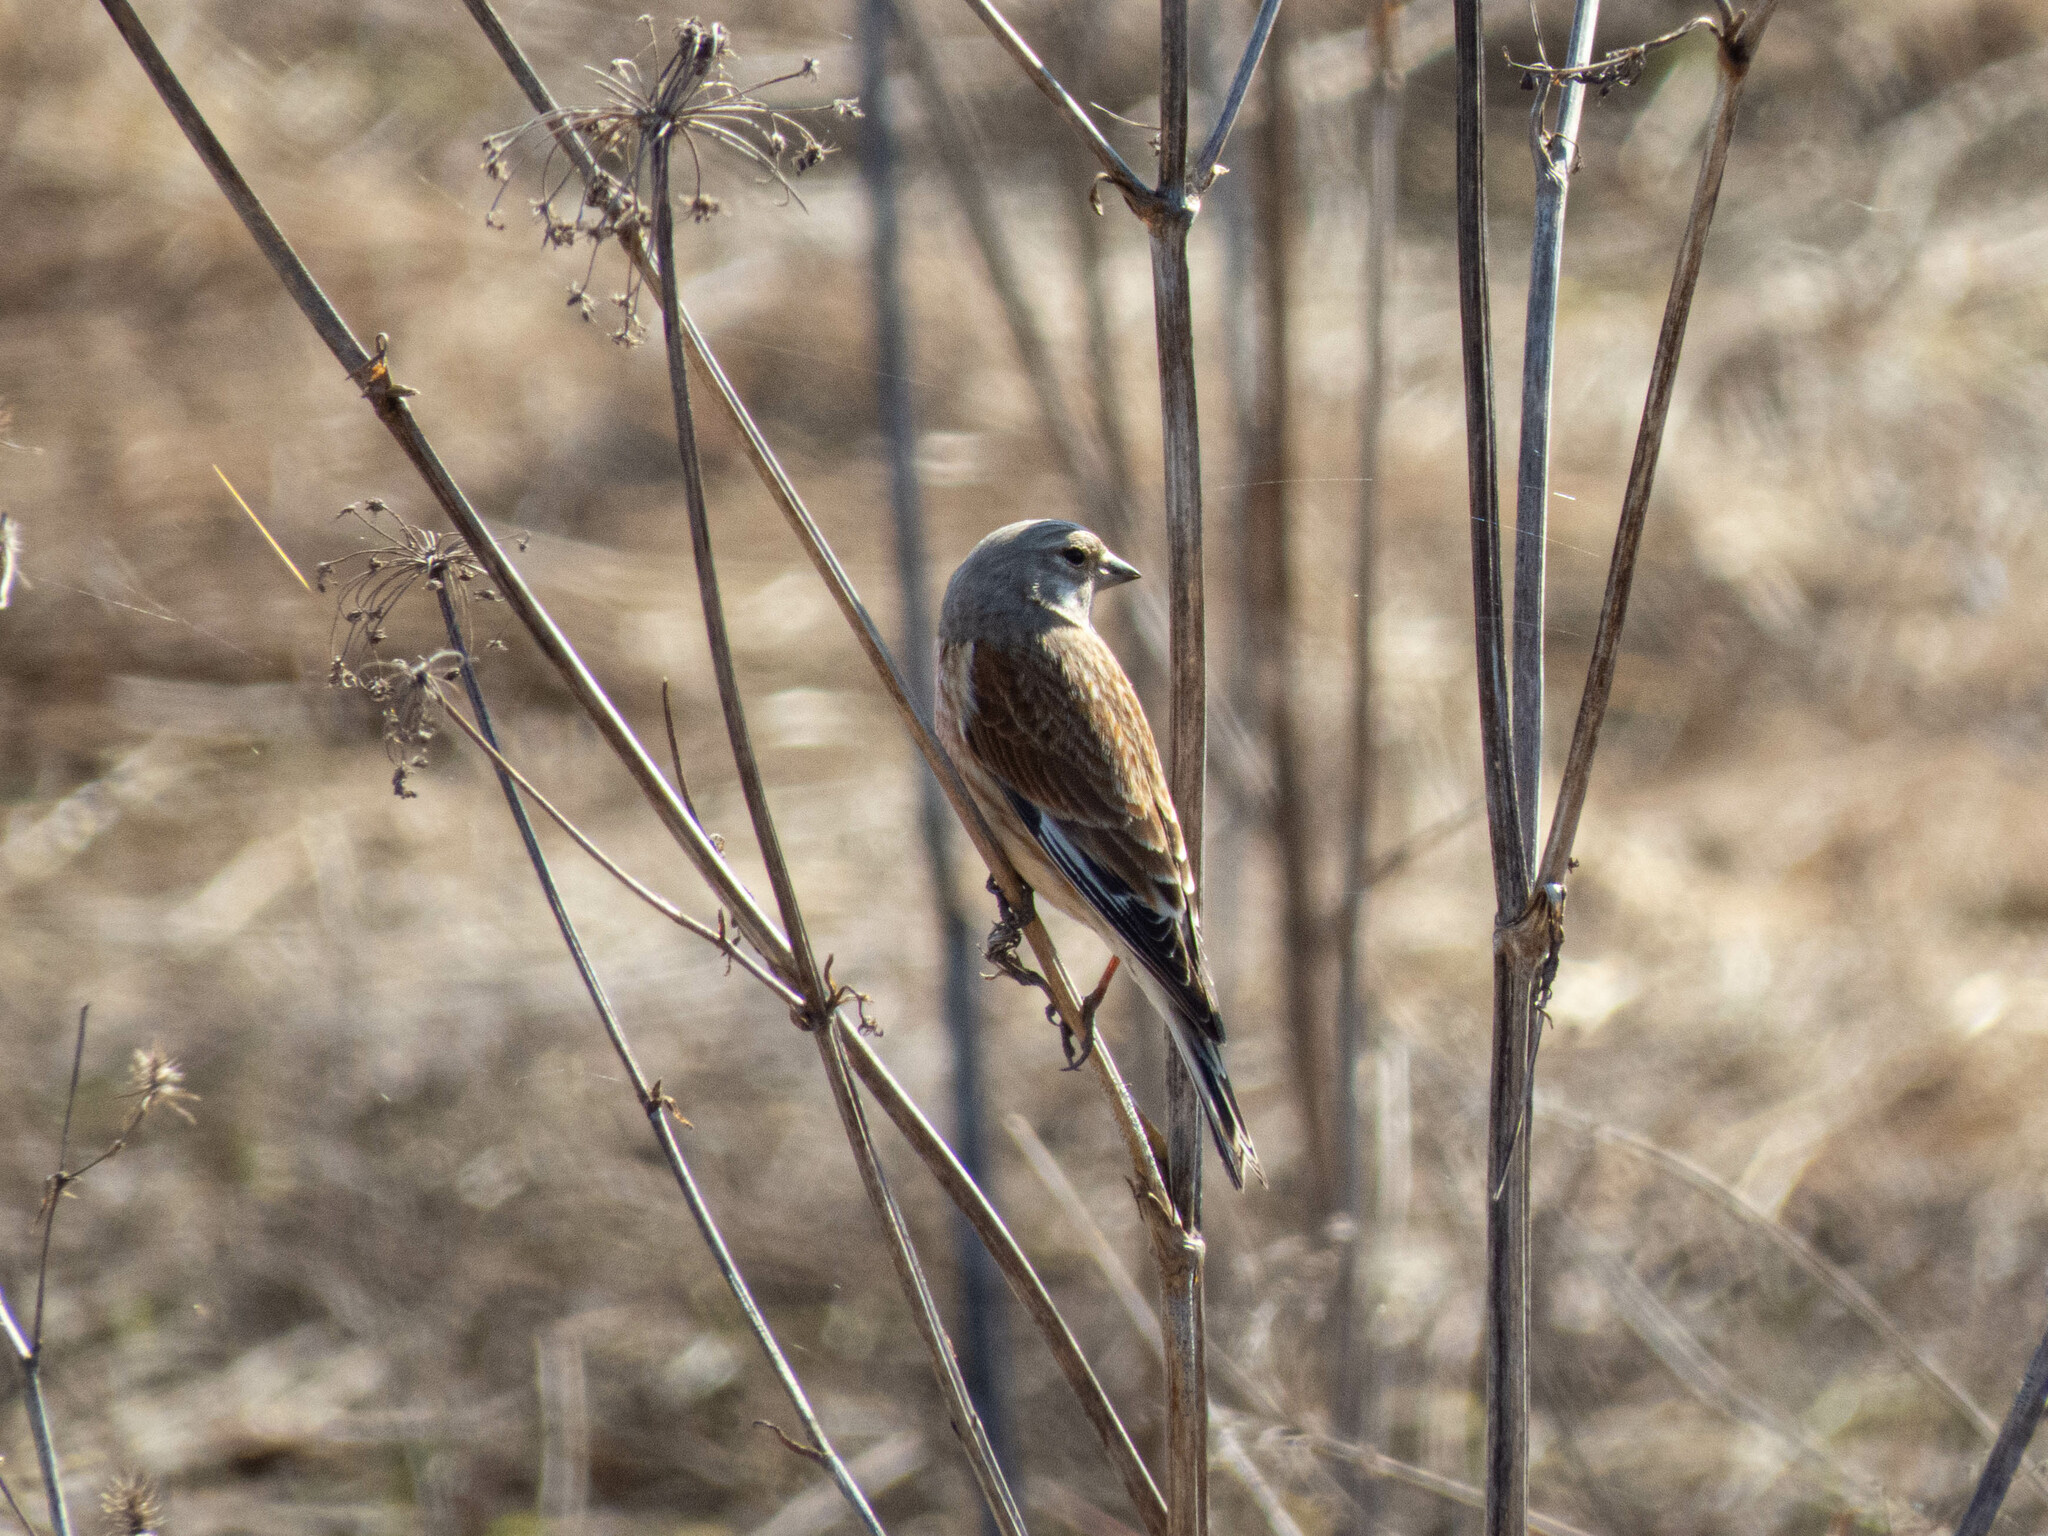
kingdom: Animalia
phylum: Chordata
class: Aves
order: Passeriformes
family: Fringillidae
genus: Linaria
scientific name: Linaria cannabina
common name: Common linnet
